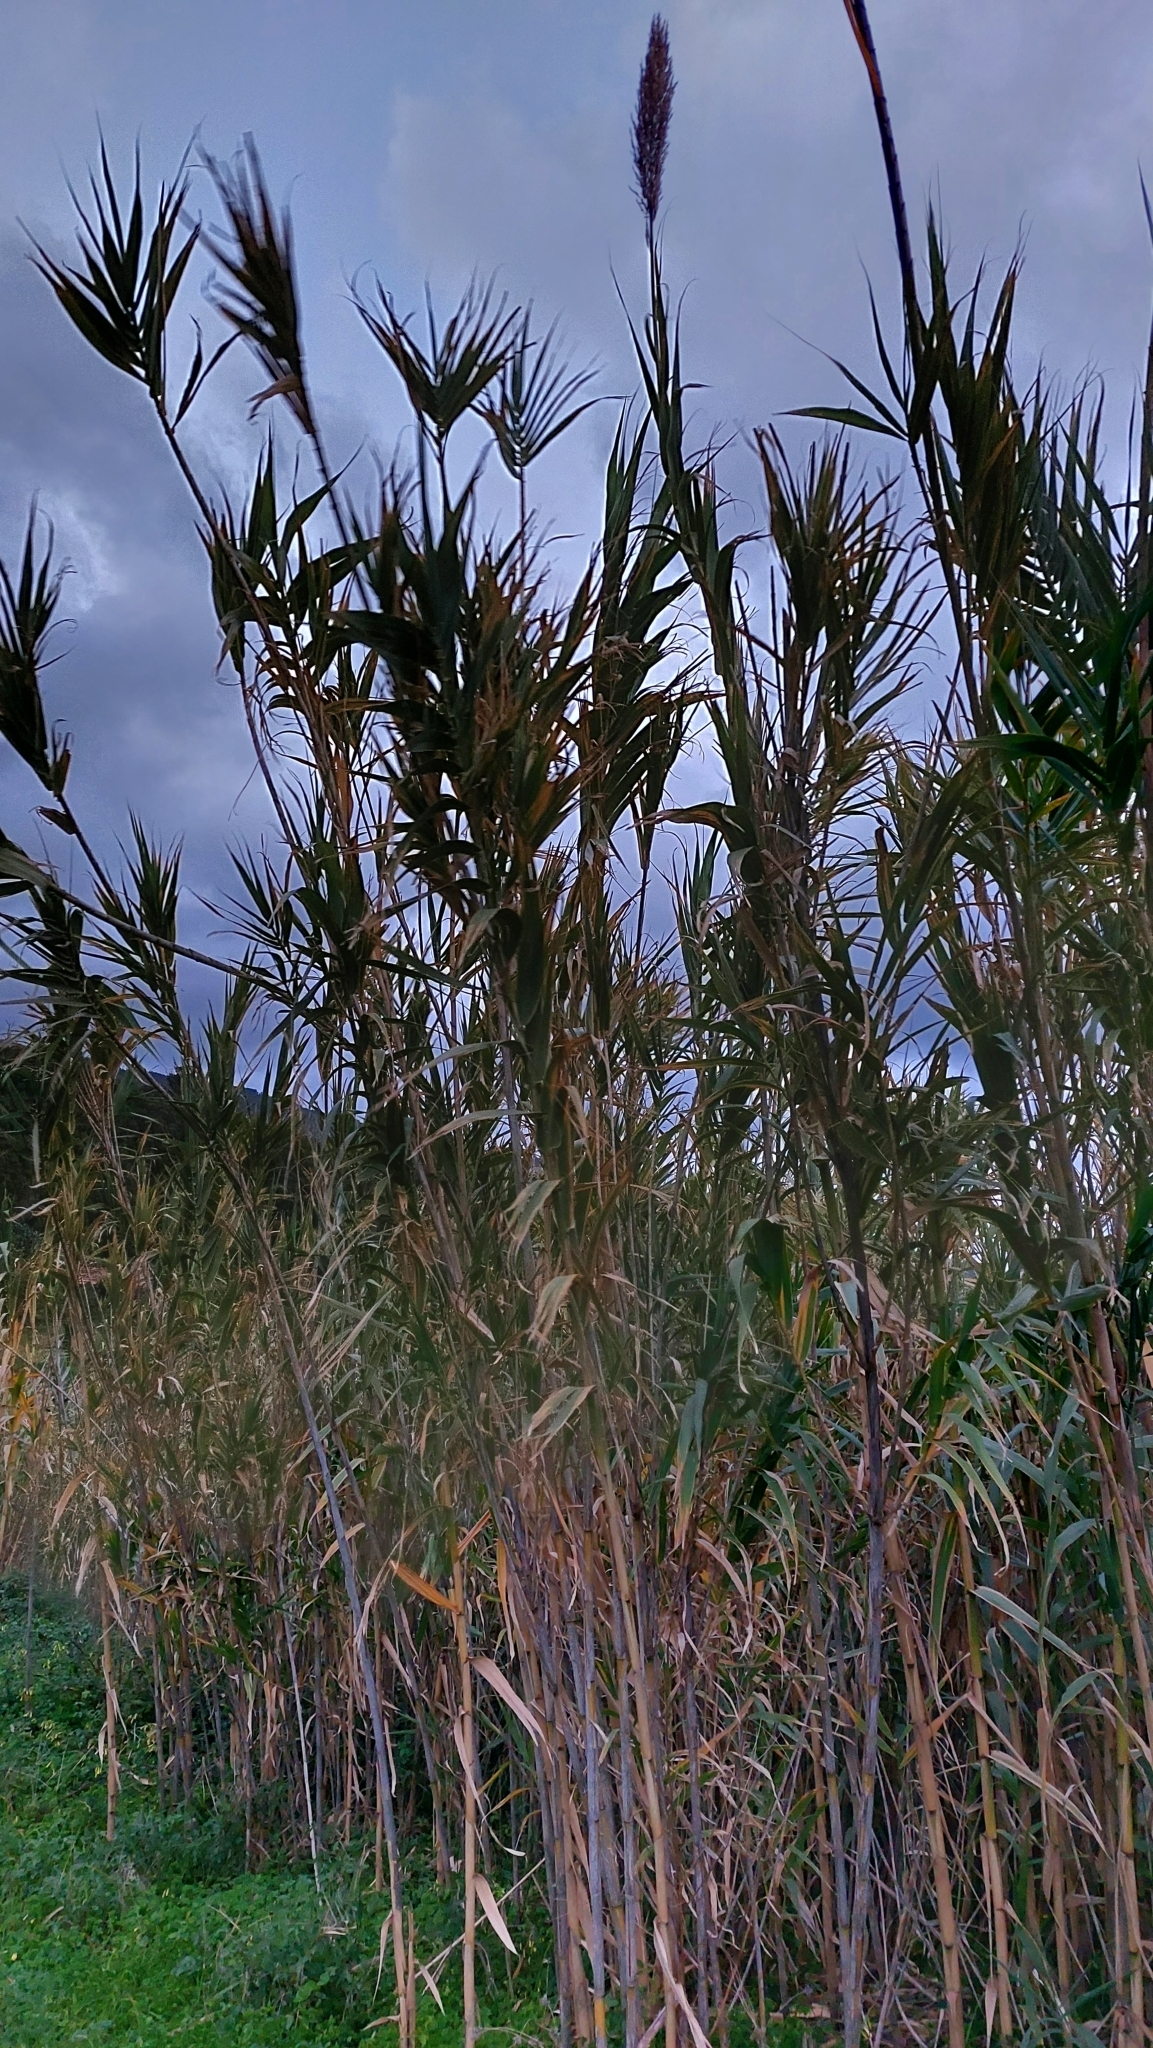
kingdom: Plantae
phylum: Tracheophyta
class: Liliopsida
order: Poales
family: Poaceae
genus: Arundo
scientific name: Arundo donax
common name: Giant reed
